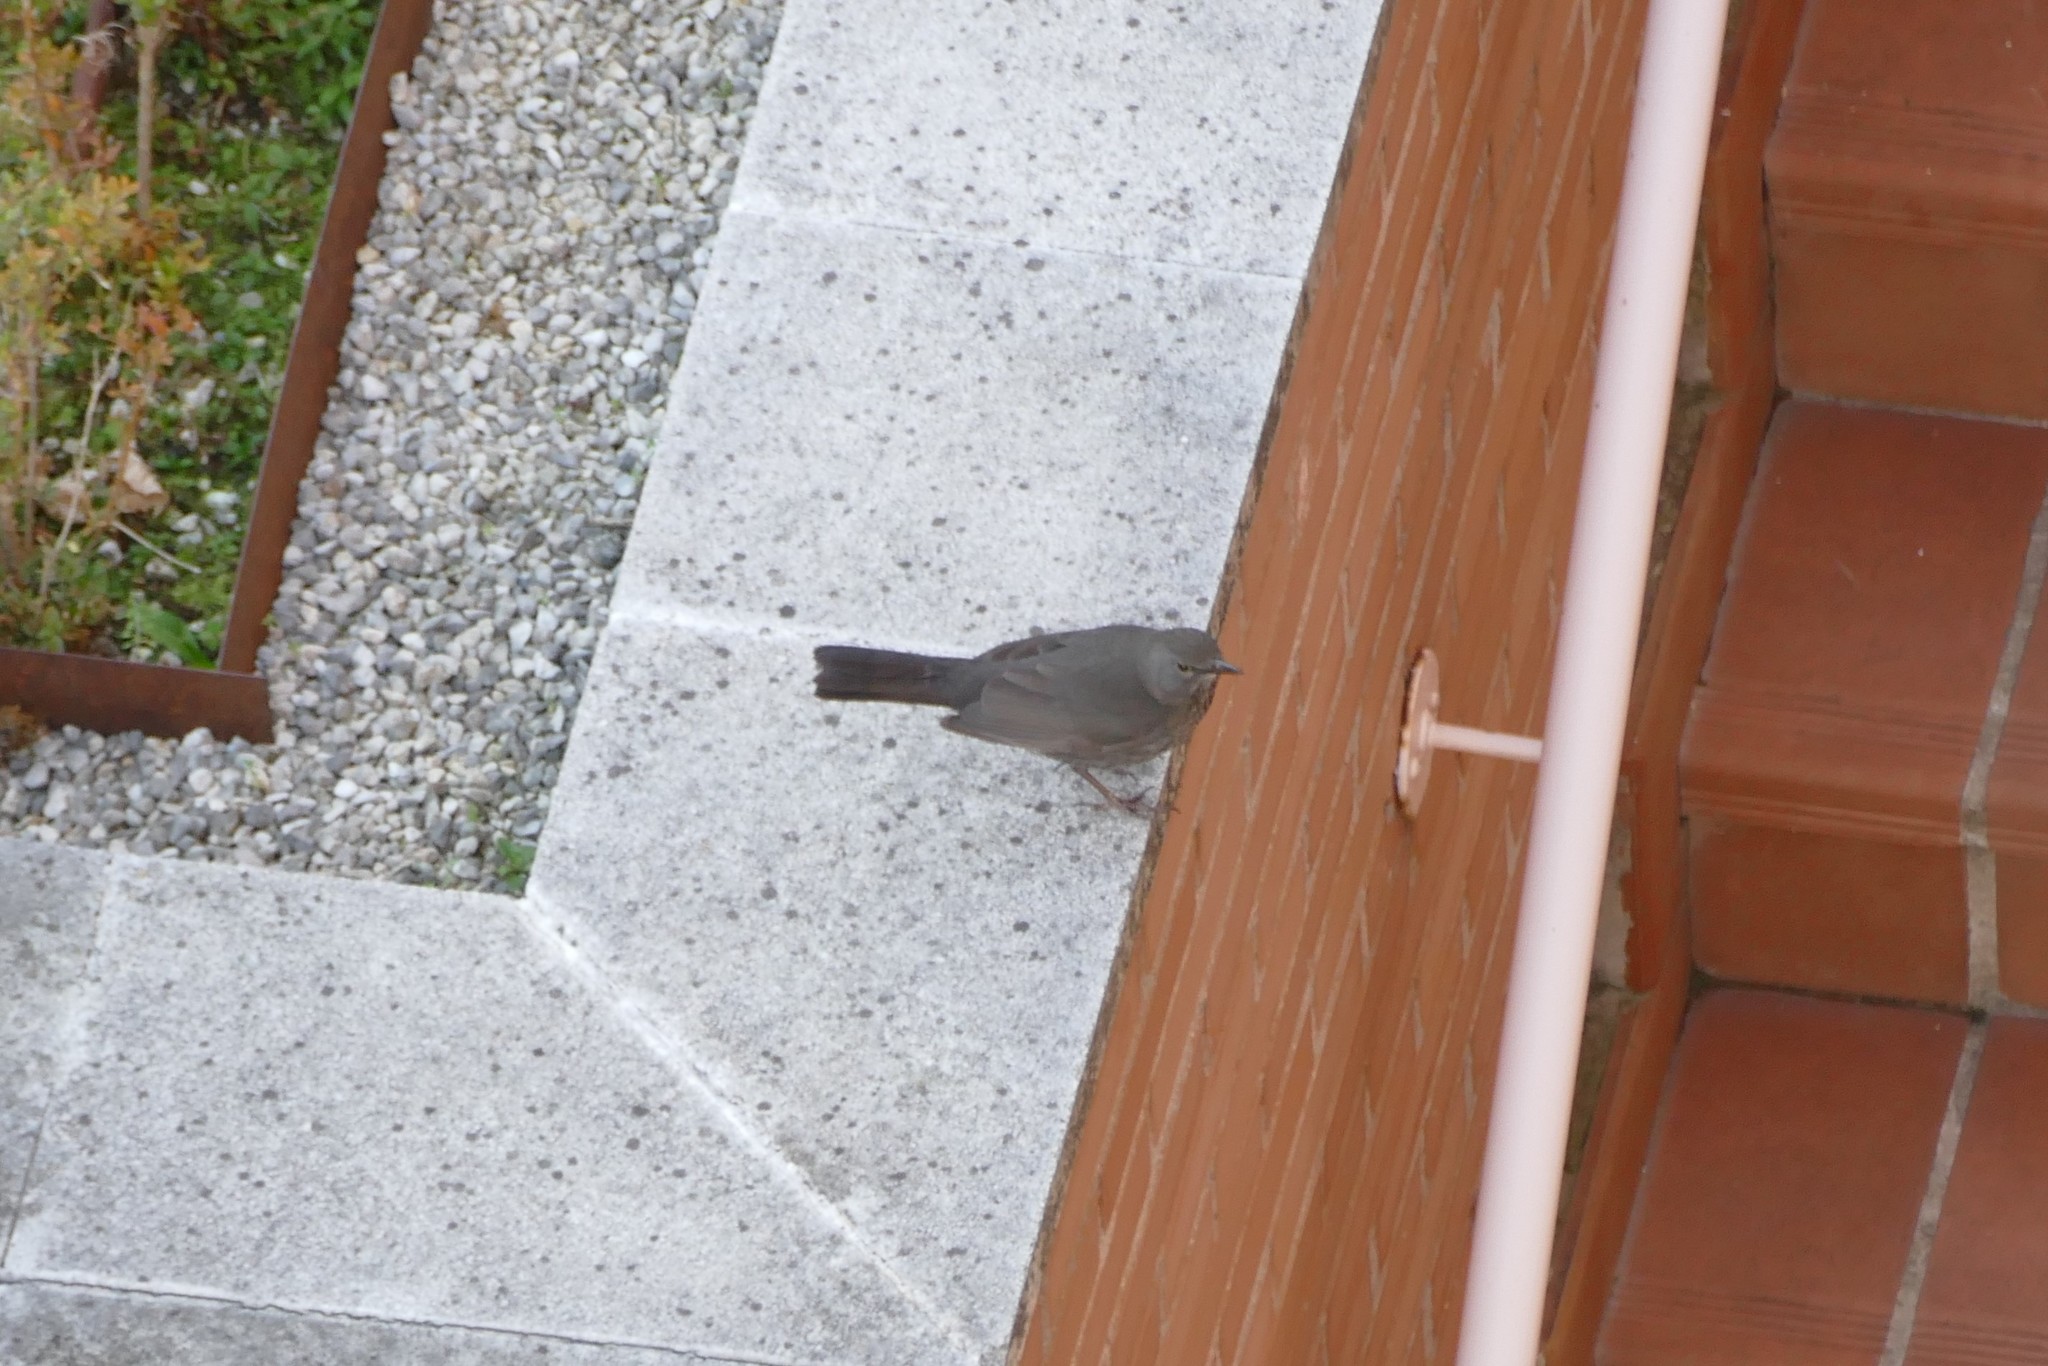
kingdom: Animalia
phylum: Chordata
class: Aves
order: Passeriformes
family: Muscicapidae
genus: Phoenicurus
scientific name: Phoenicurus ochruros
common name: Black redstart
